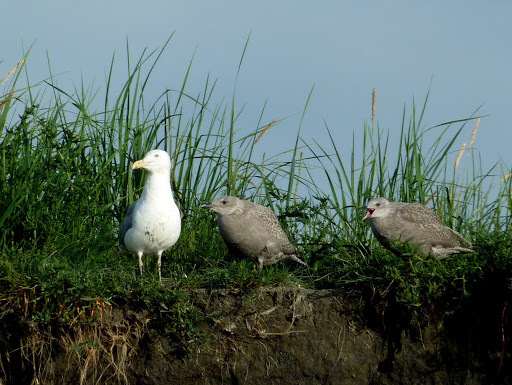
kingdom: Animalia
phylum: Chordata
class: Aves
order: Charadriiformes
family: Laridae
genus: Larus
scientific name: Larus glaucescens
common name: Glaucous-winged gull
